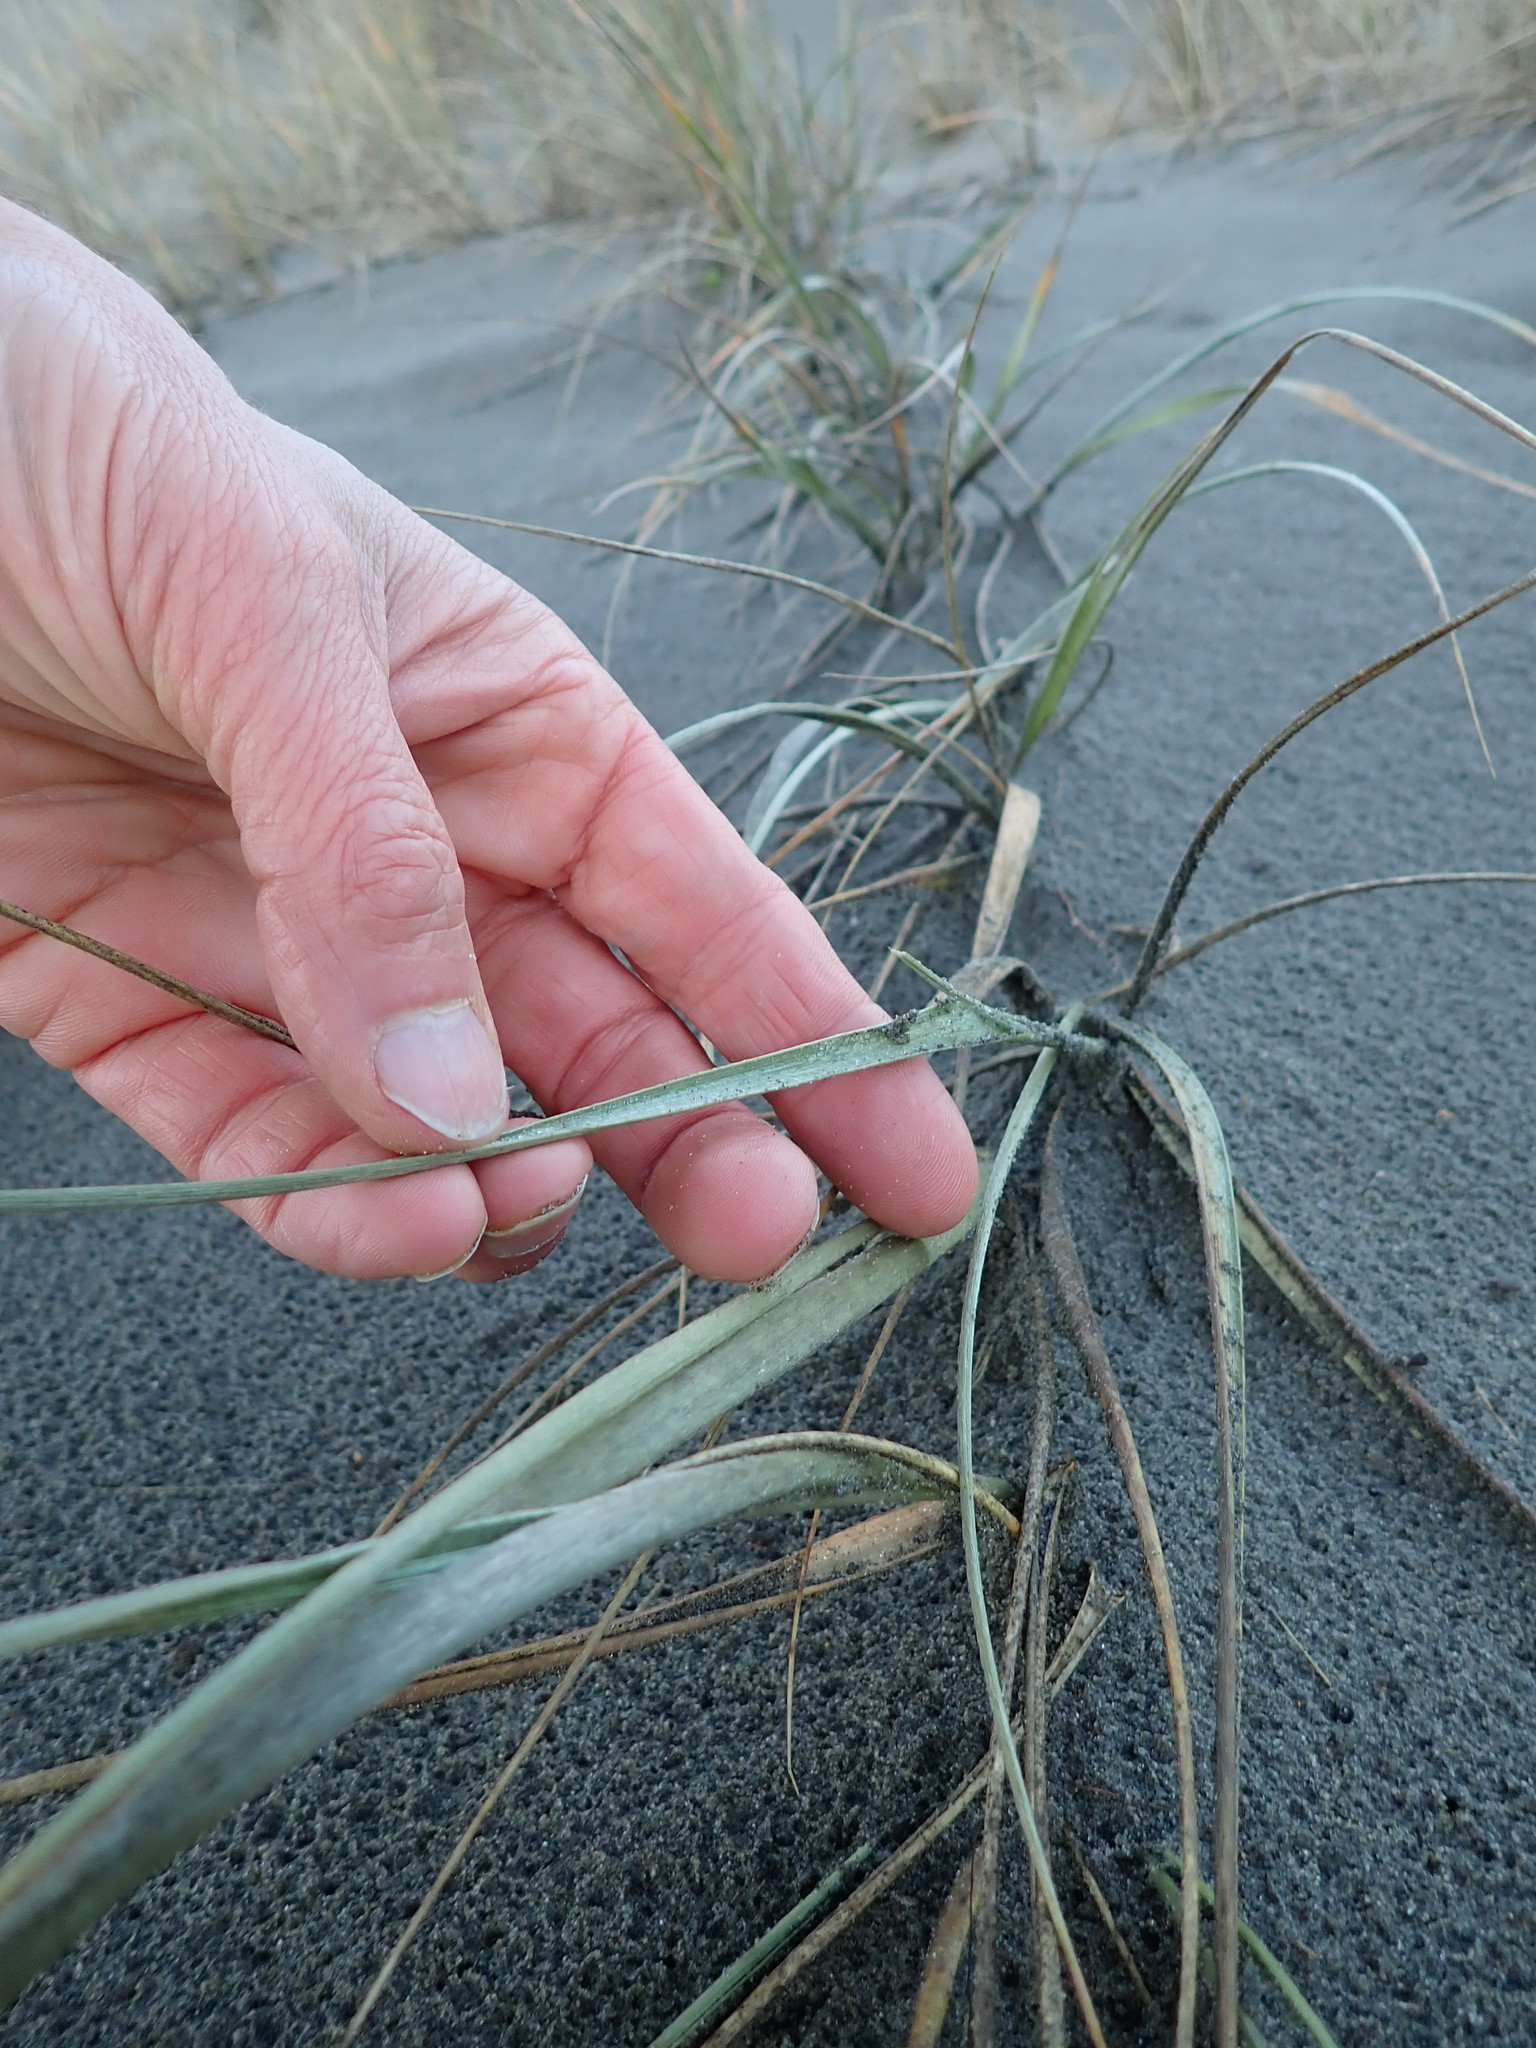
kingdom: Plantae
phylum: Tracheophyta
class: Liliopsida
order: Poales
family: Poaceae
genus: Spinifex
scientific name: Spinifex sericeus
